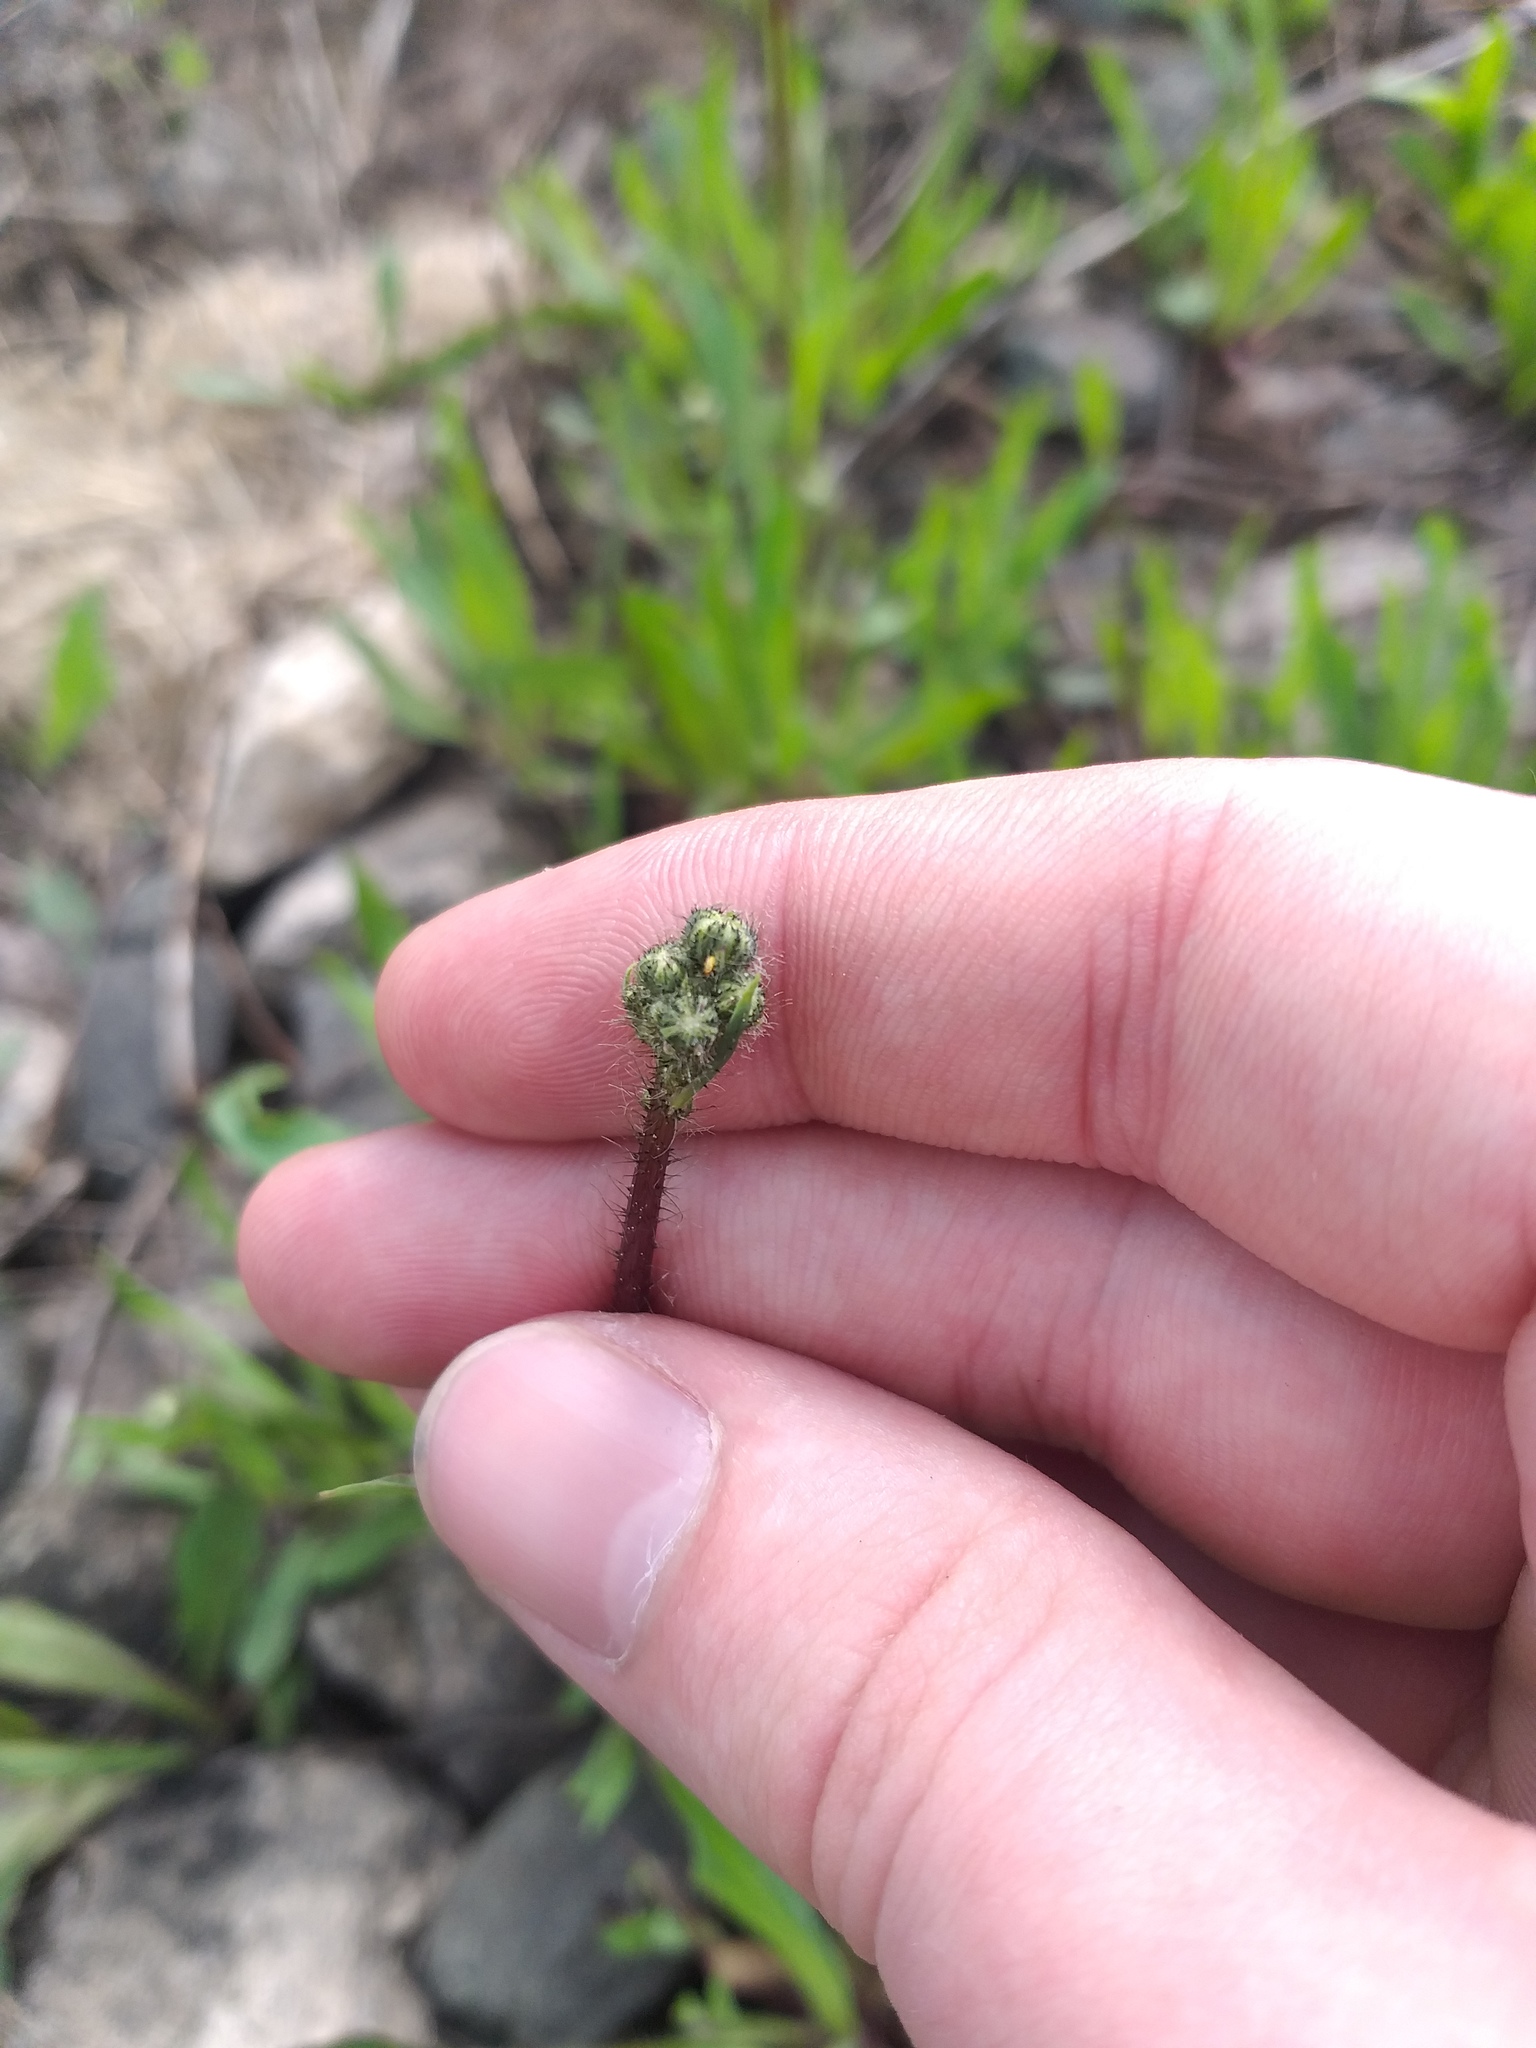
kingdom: Plantae
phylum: Tracheophyta
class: Magnoliopsida
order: Asterales
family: Asteraceae
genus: Pilosella
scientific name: Pilosella
